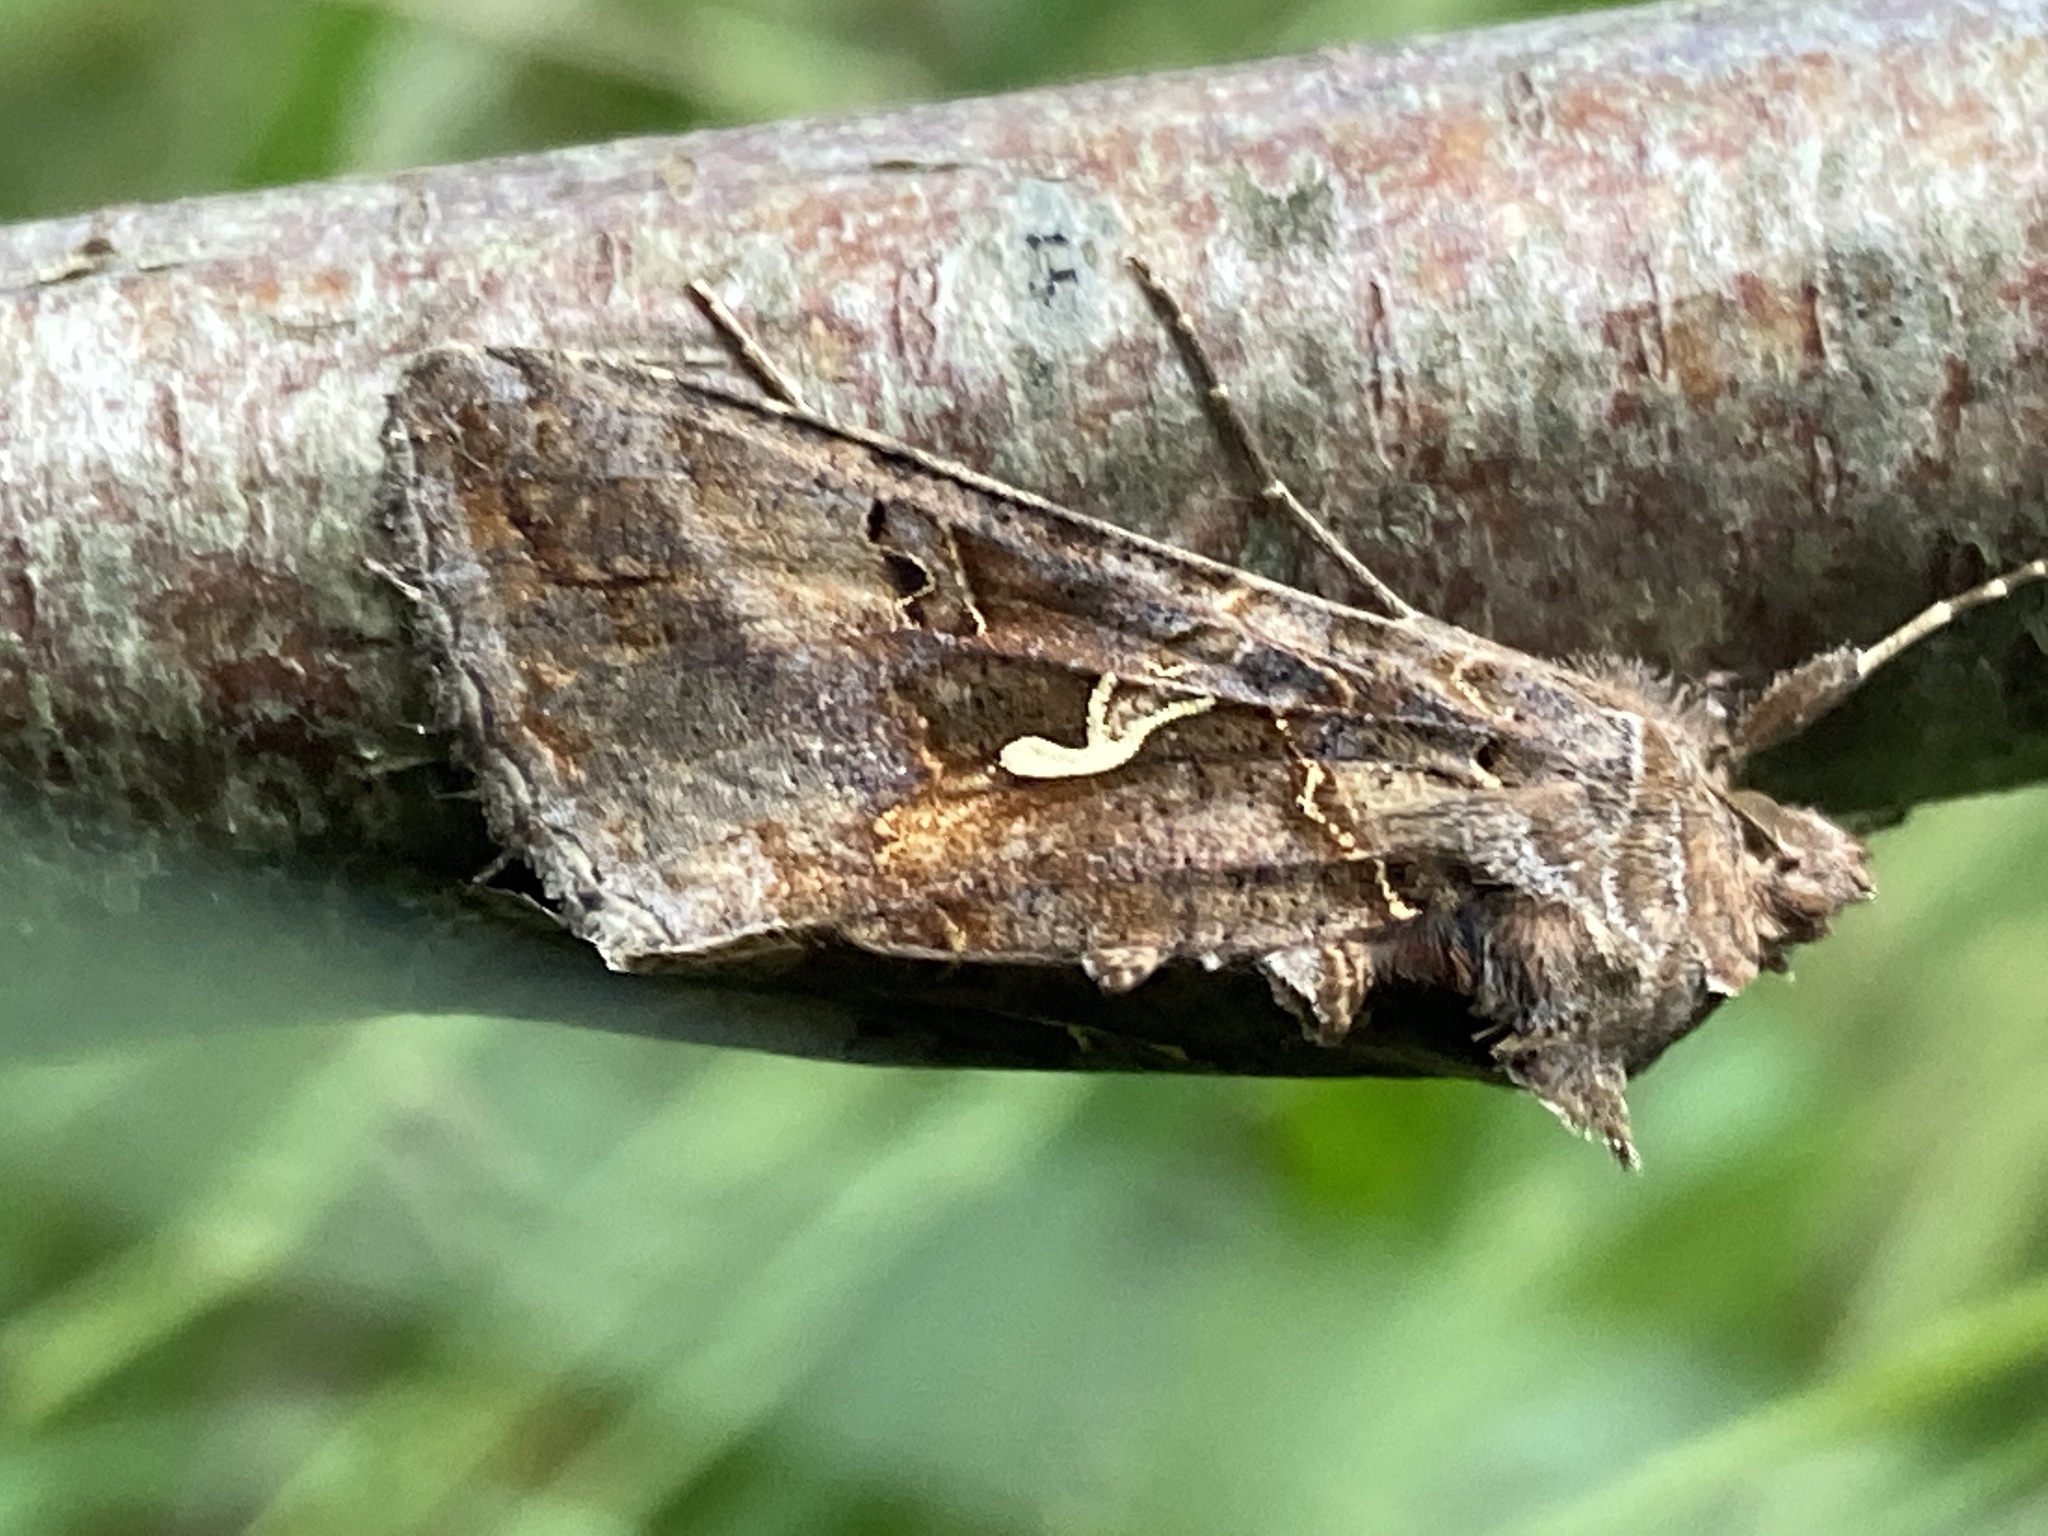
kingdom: Animalia
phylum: Arthropoda
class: Insecta
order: Lepidoptera
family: Noctuidae
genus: Autographa
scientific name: Autographa gamma
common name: Silver y
